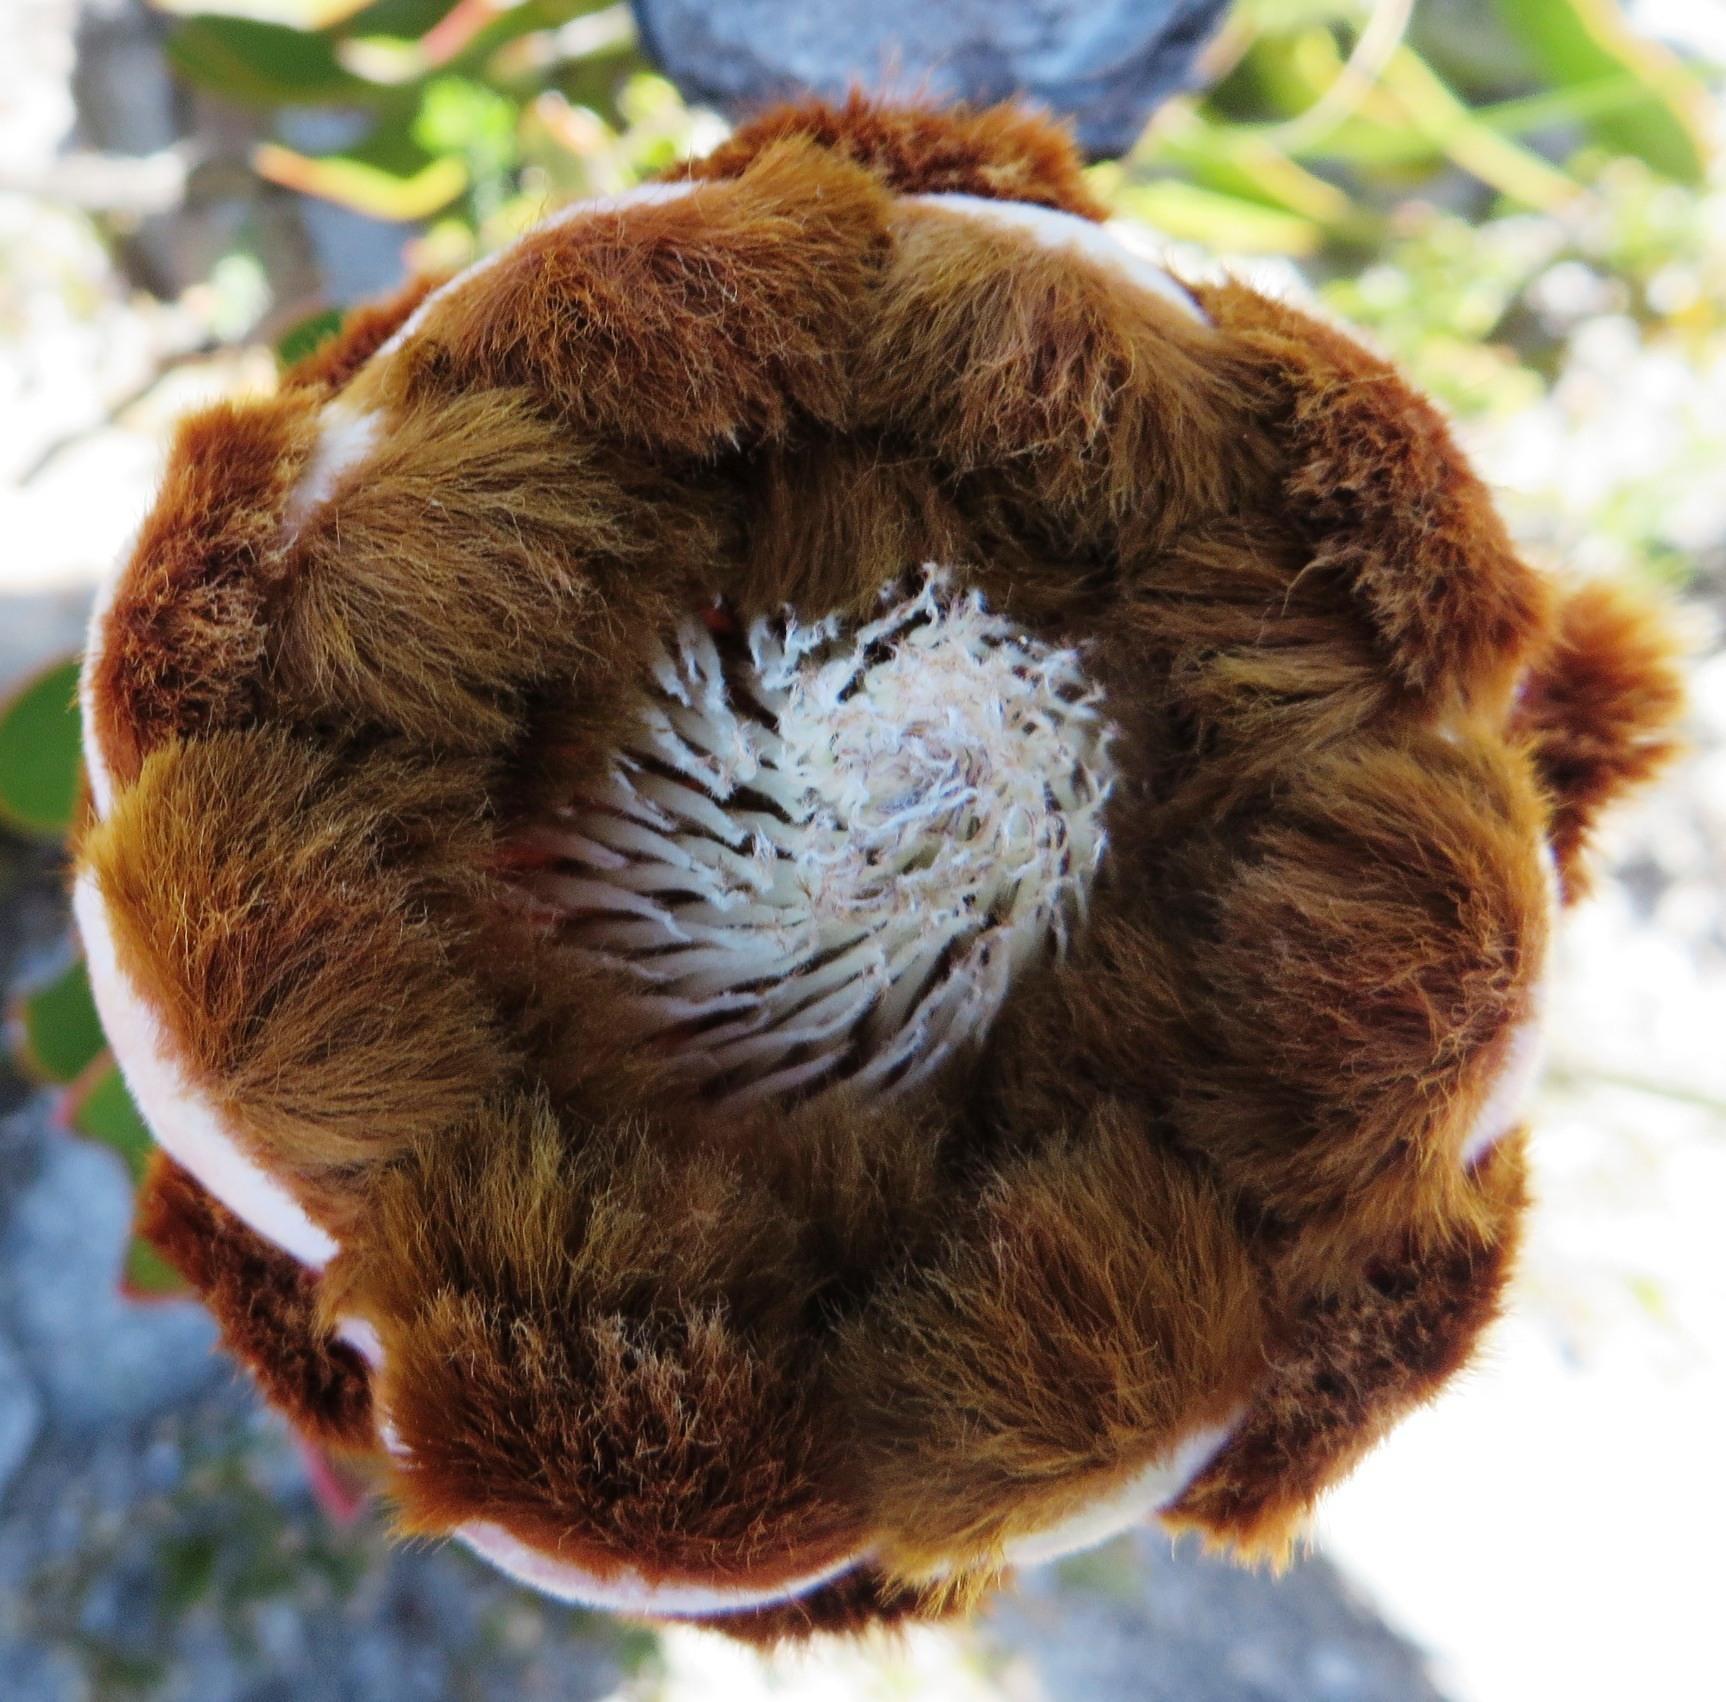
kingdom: Plantae
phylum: Tracheophyta
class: Magnoliopsida
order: Proteales
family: Proteaceae
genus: Protea
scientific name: Protea speciosa
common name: Brown-beard sugarbush
